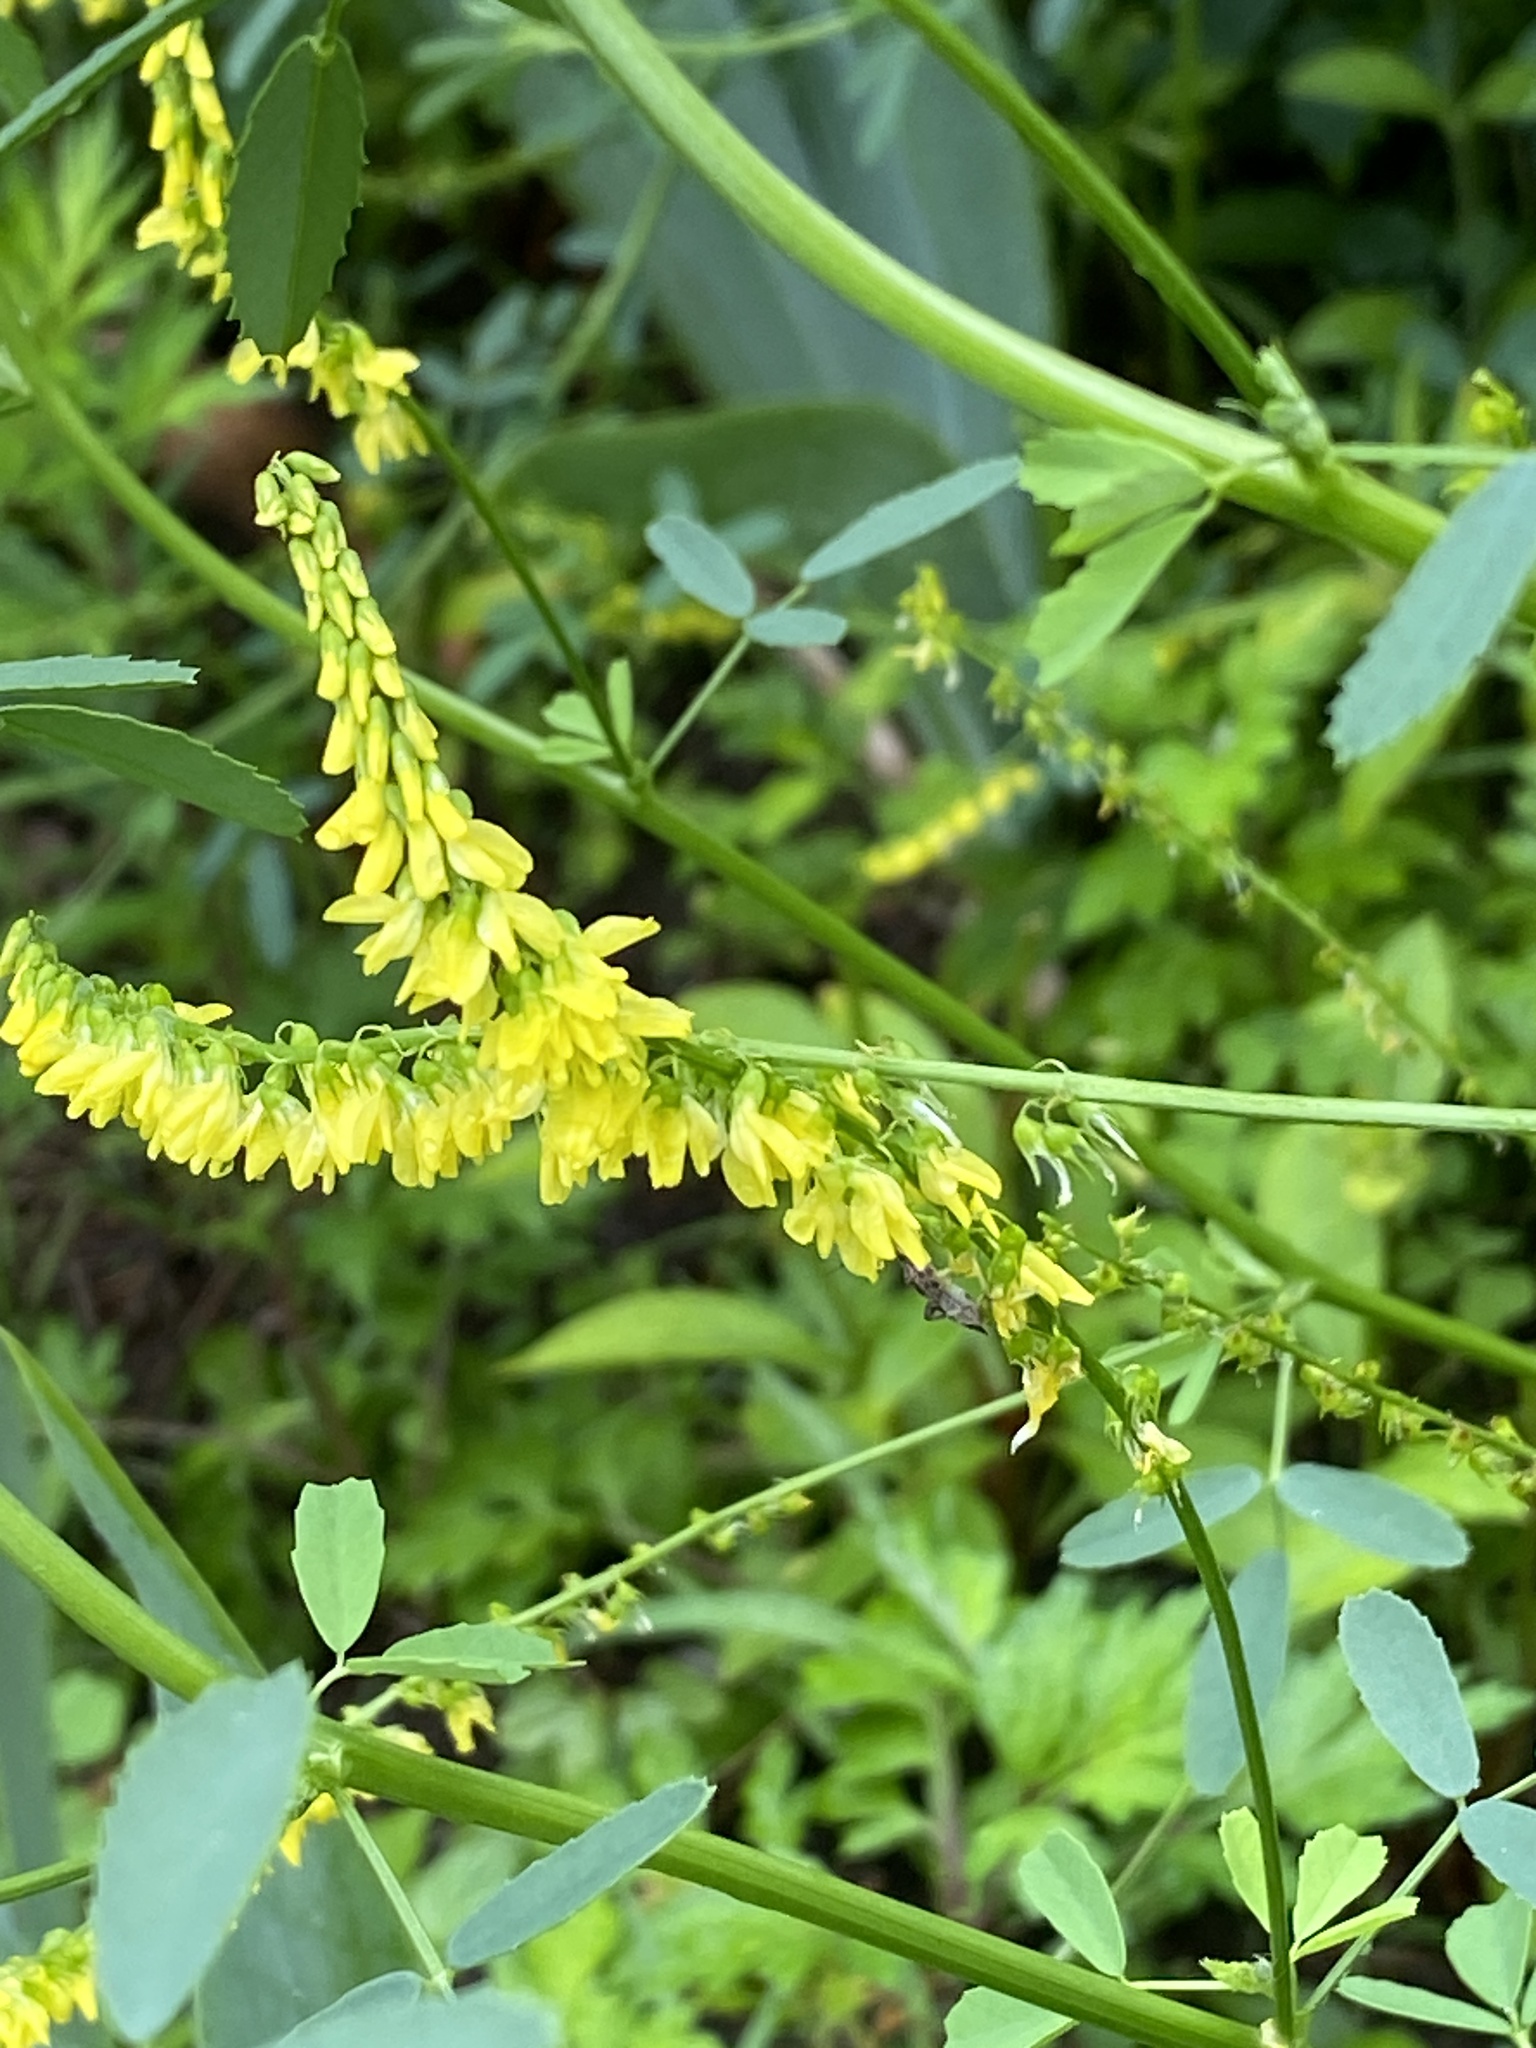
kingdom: Plantae
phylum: Tracheophyta
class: Magnoliopsida
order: Fabales
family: Fabaceae
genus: Melilotus
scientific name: Melilotus officinalis
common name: Sweetclover
